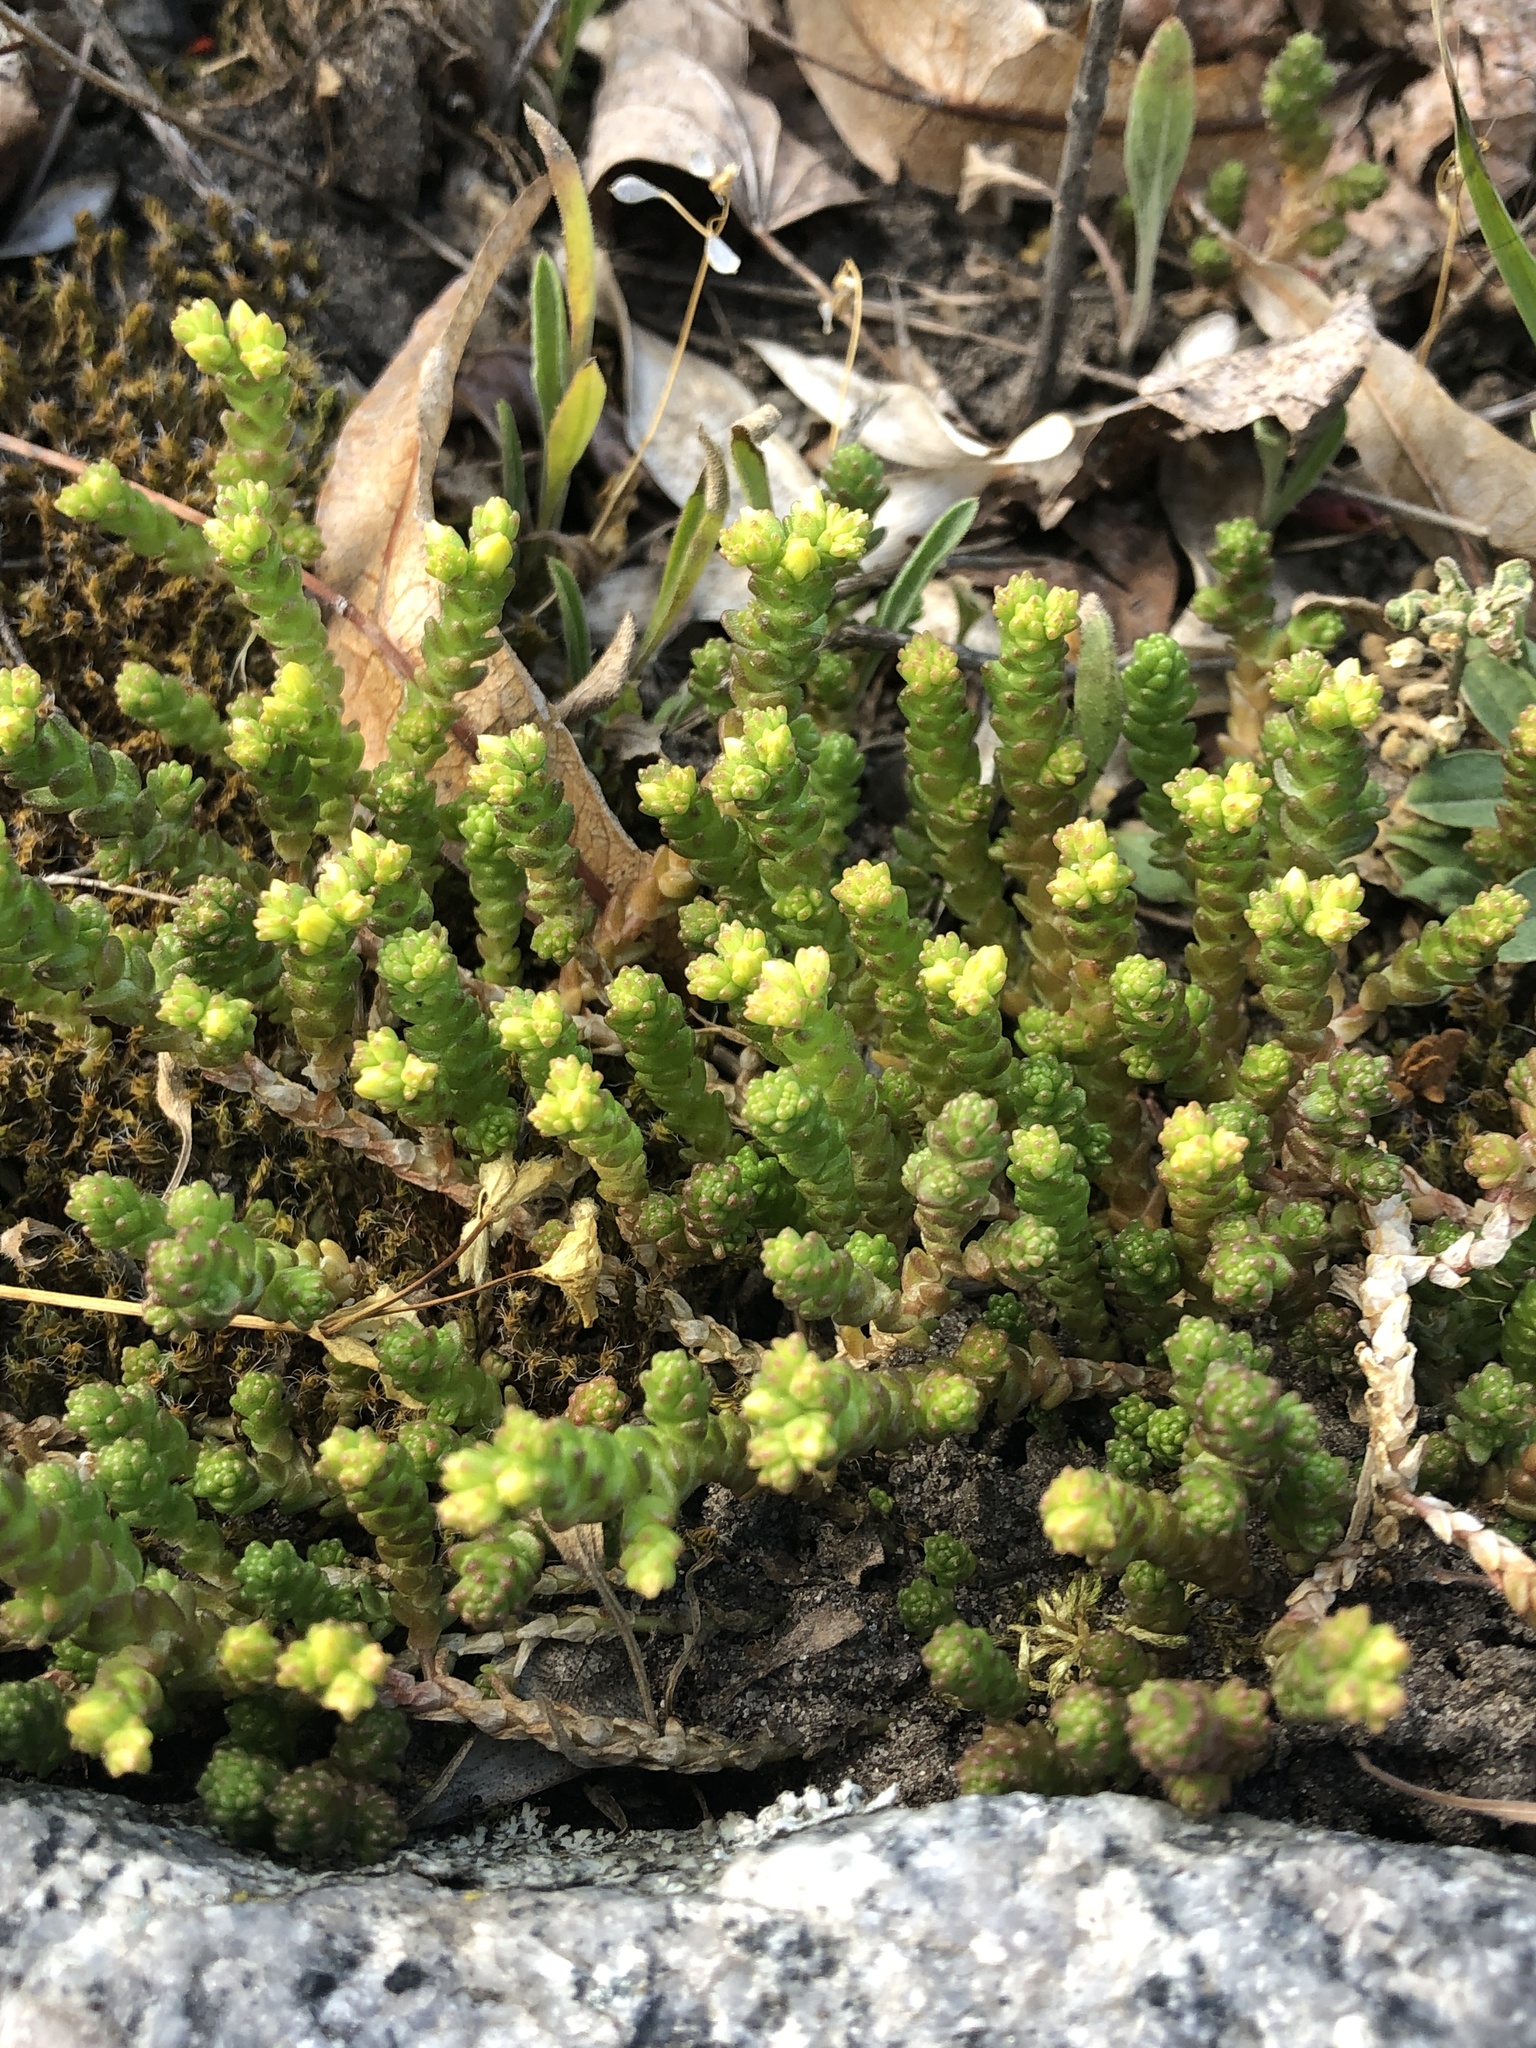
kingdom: Plantae
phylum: Tracheophyta
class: Magnoliopsida
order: Saxifragales
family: Crassulaceae
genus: Sedum
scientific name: Sedum acre
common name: Biting stonecrop
